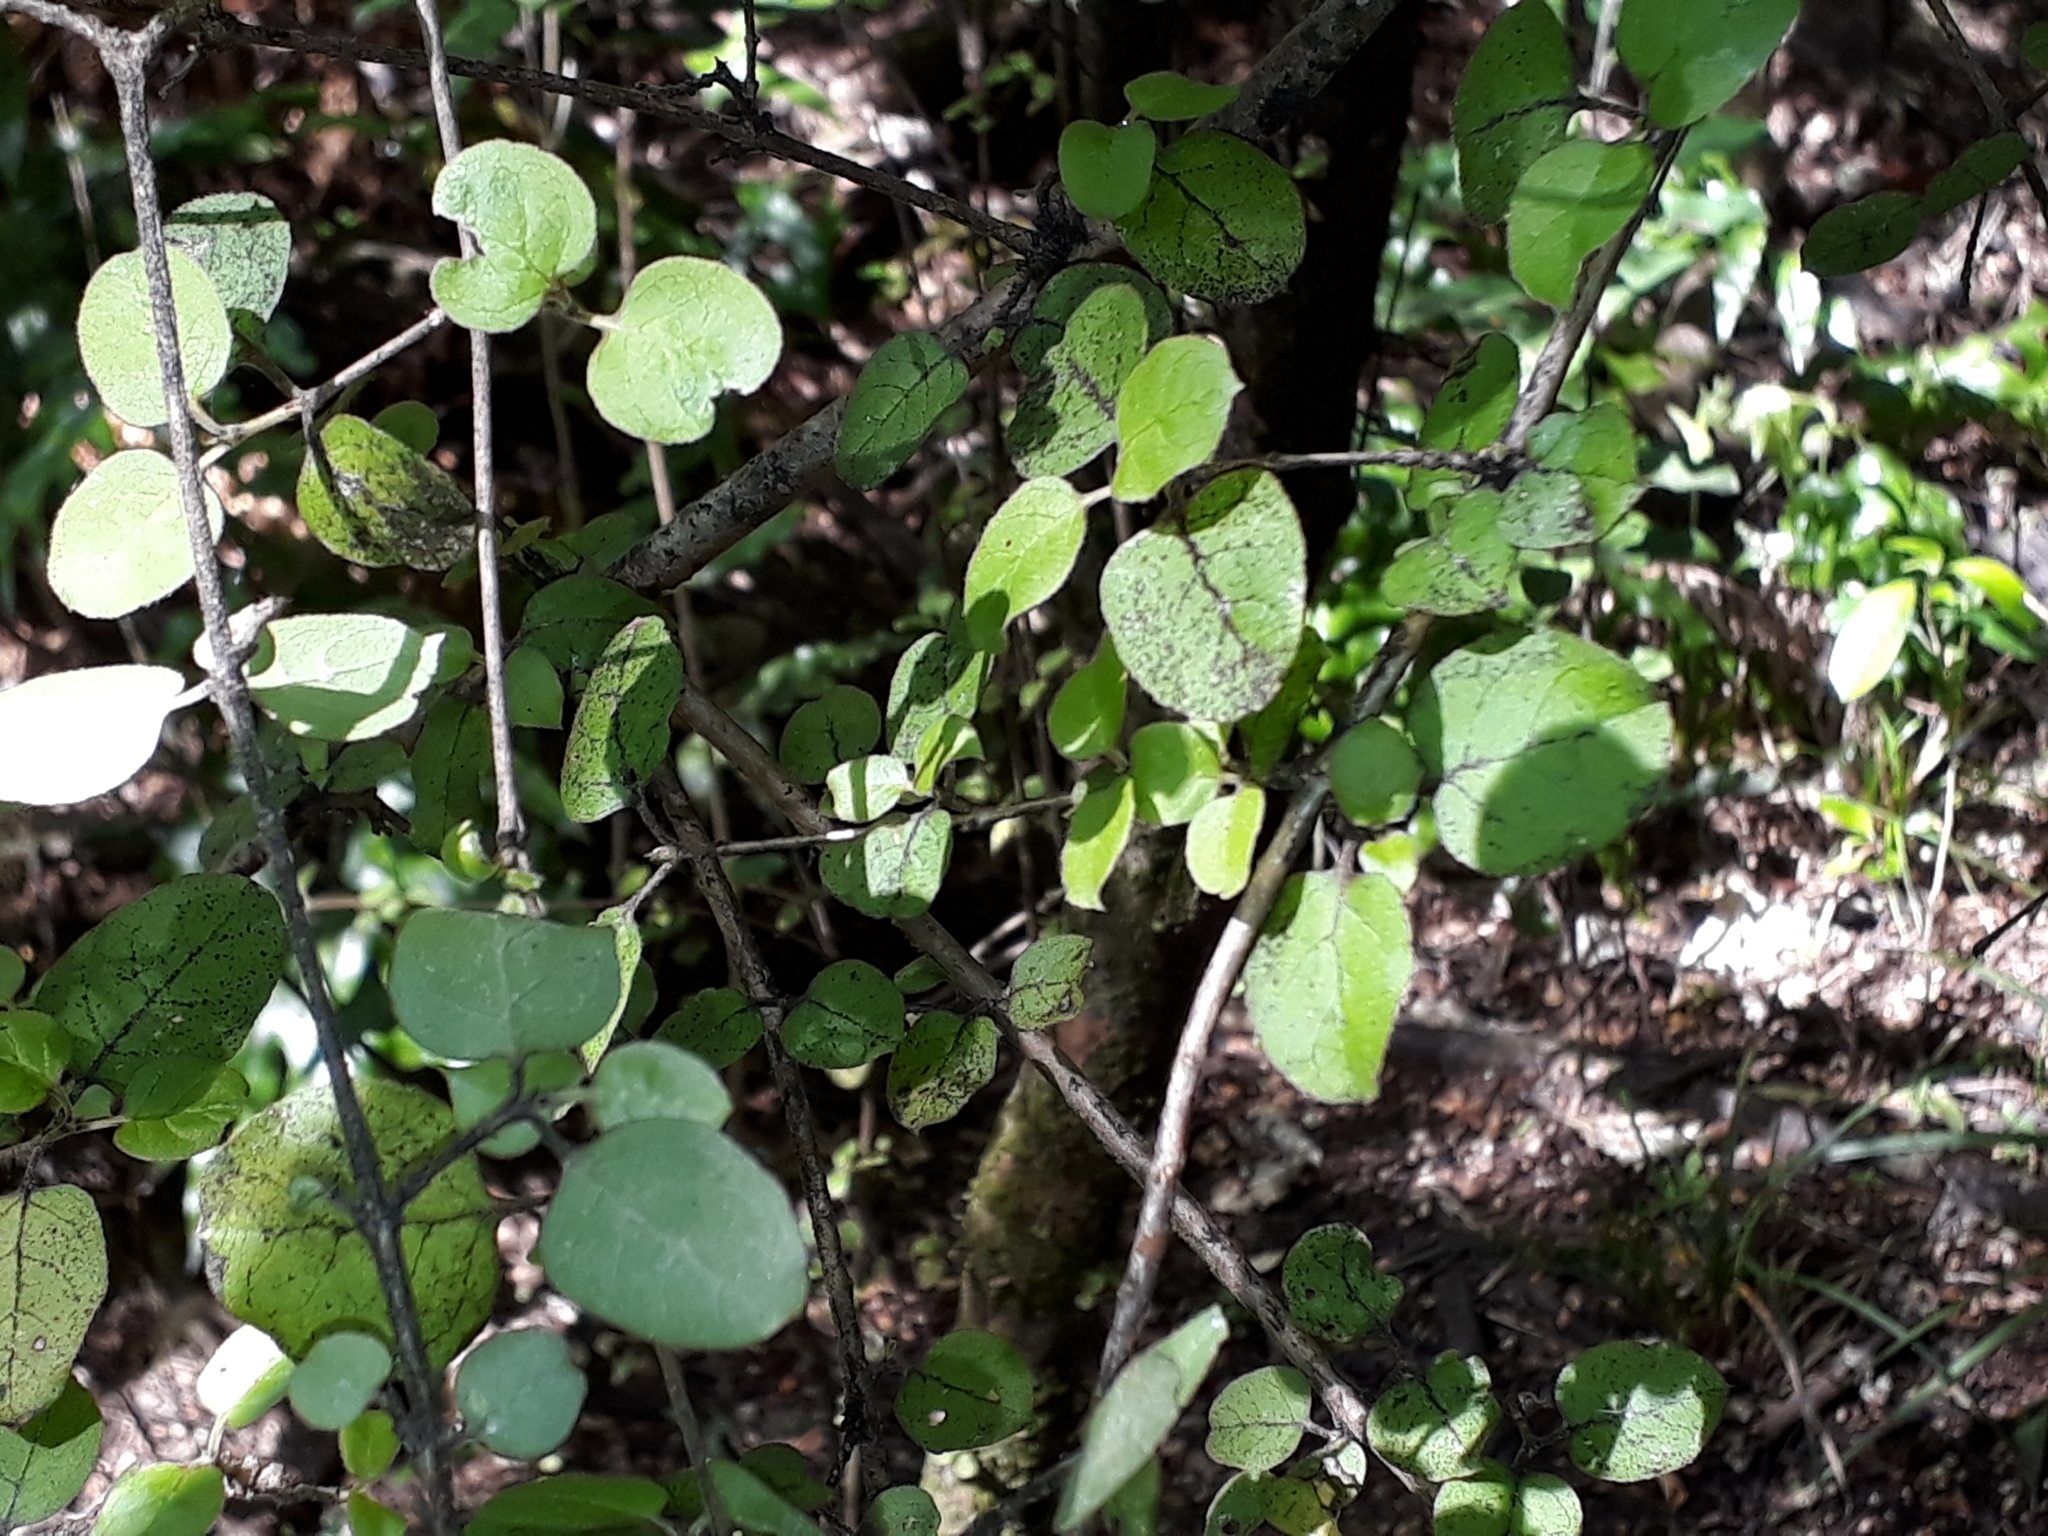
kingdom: Plantae
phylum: Tracheophyta
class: Magnoliopsida
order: Gentianales
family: Rubiaceae
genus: Coprosma
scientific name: Coprosma rotundifolia
